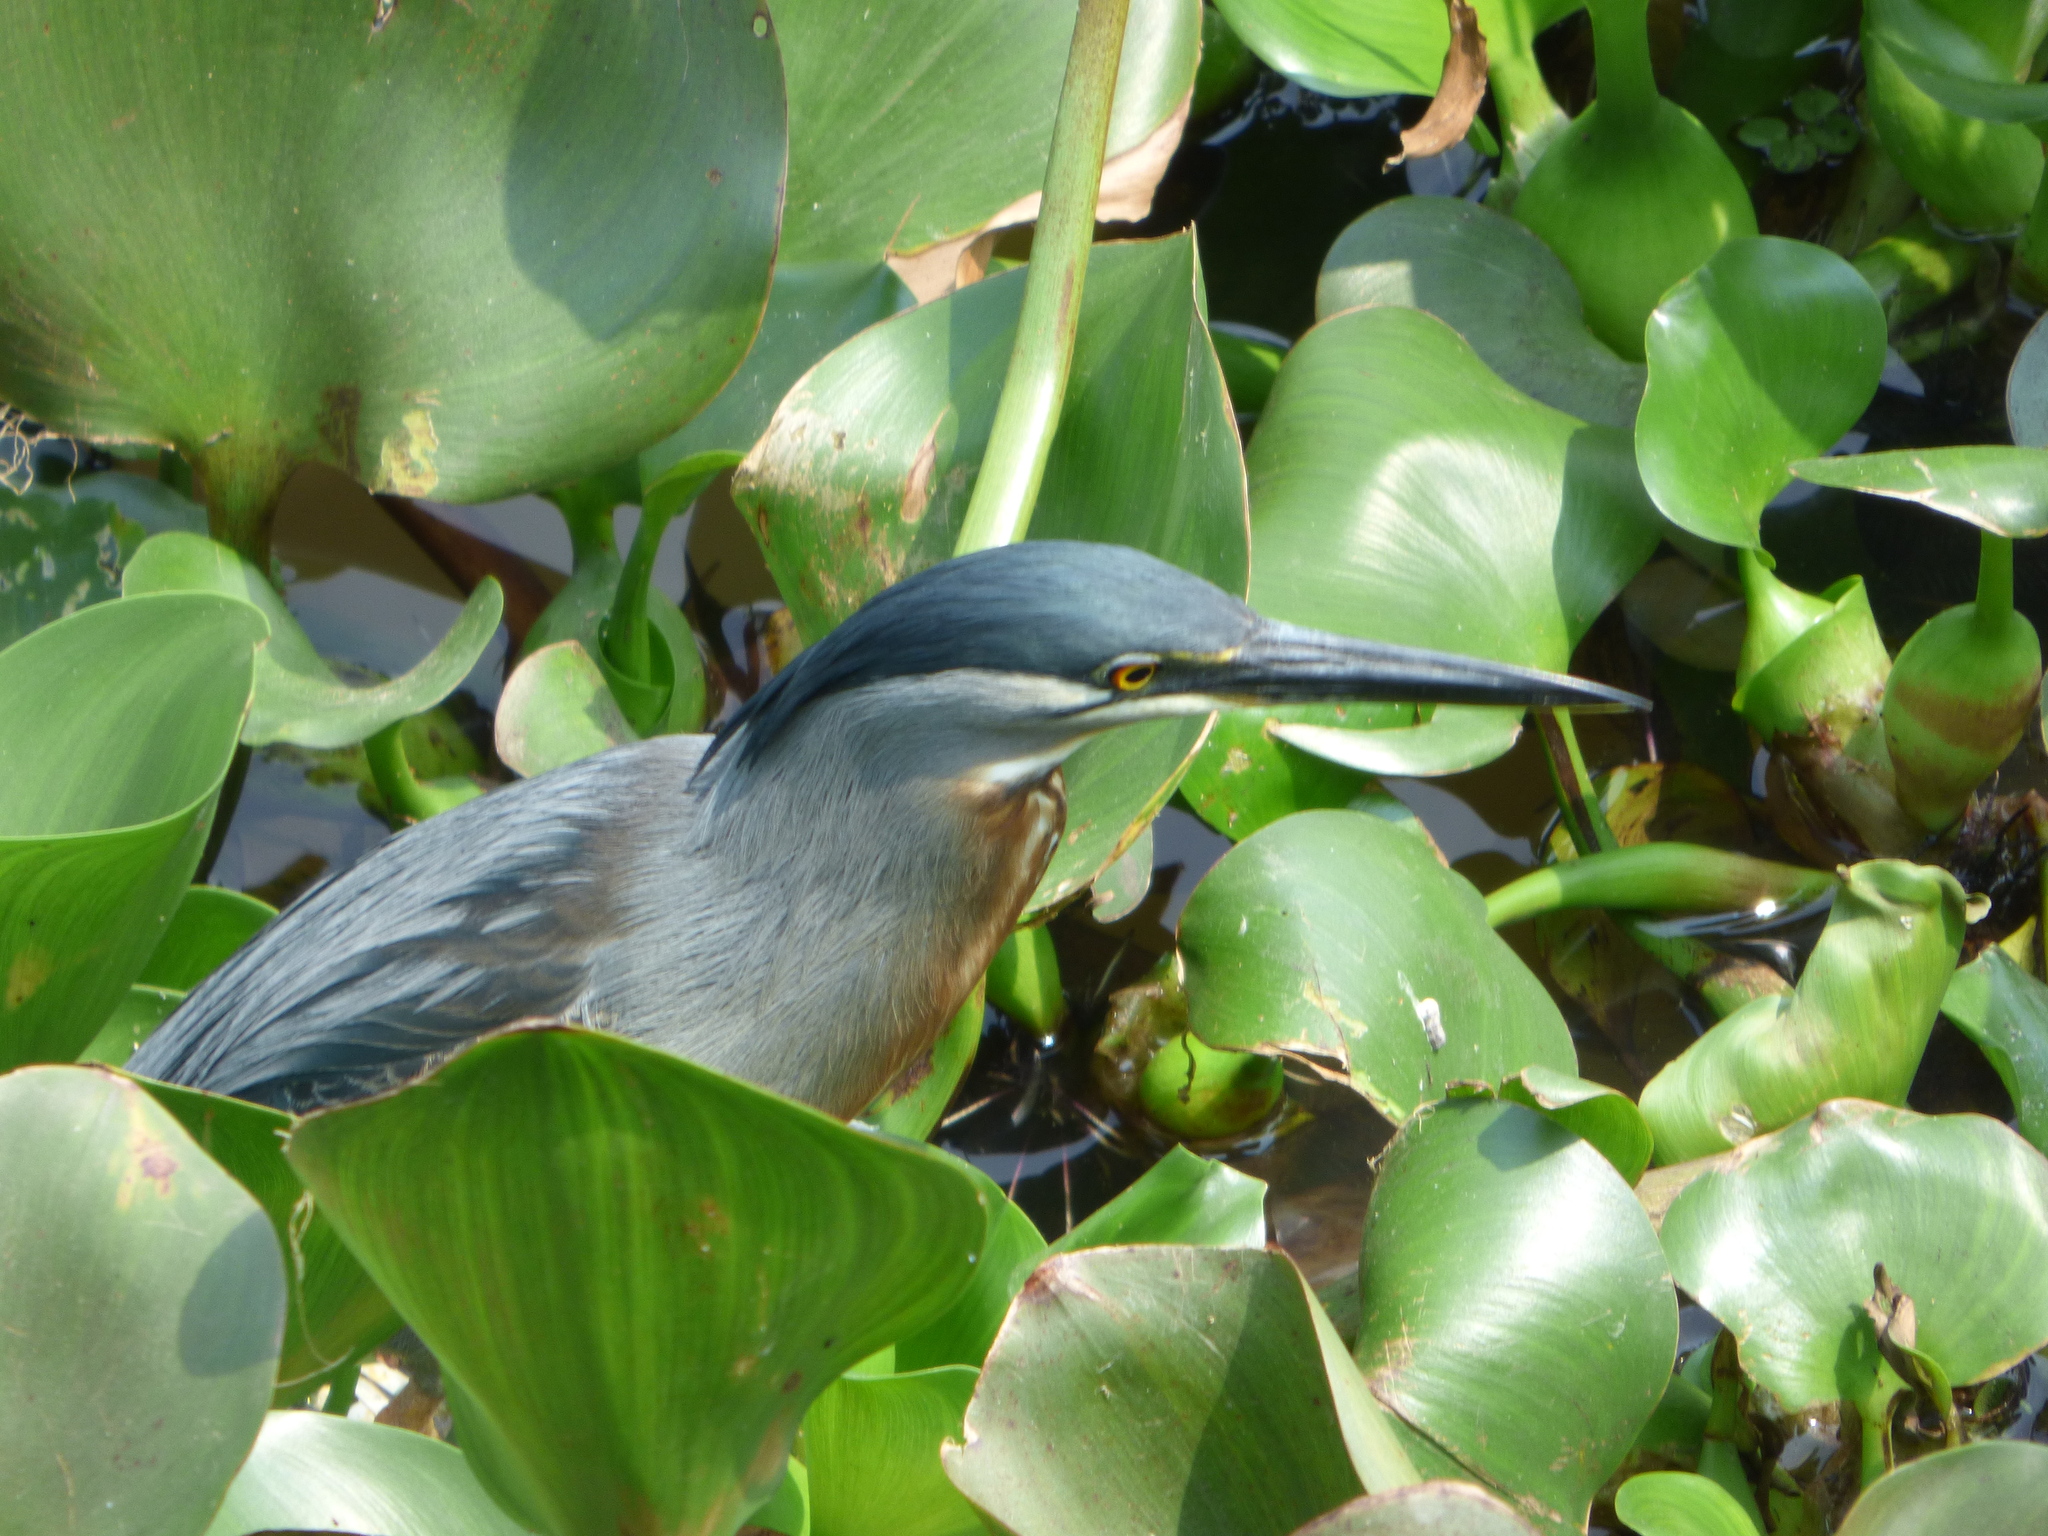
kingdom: Animalia
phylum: Chordata
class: Aves
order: Pelecaniformes
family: Ardeidae
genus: Butorides
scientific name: Butorides striata
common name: Striated heron
